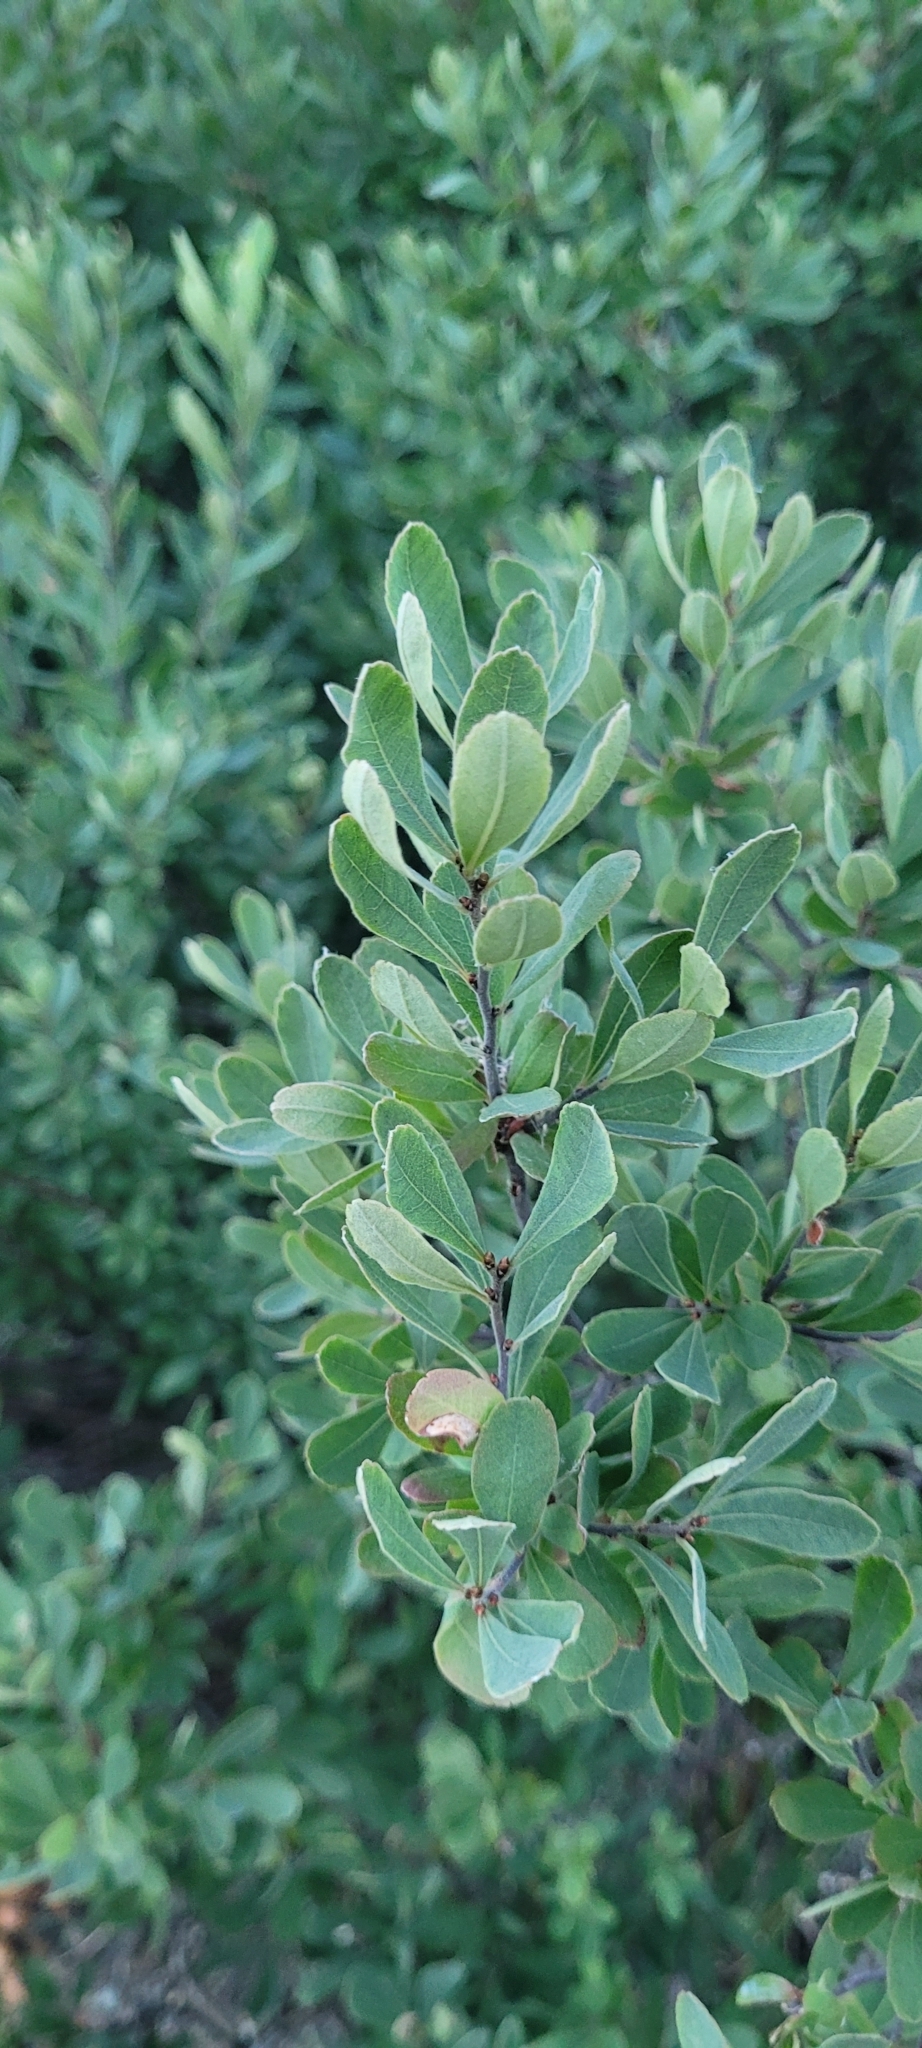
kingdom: Plantae
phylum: Tracheophyta
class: Magnoliopsida
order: Fagales
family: Myricaceae
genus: Myrica
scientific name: Myrica gale
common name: Sweet gale
